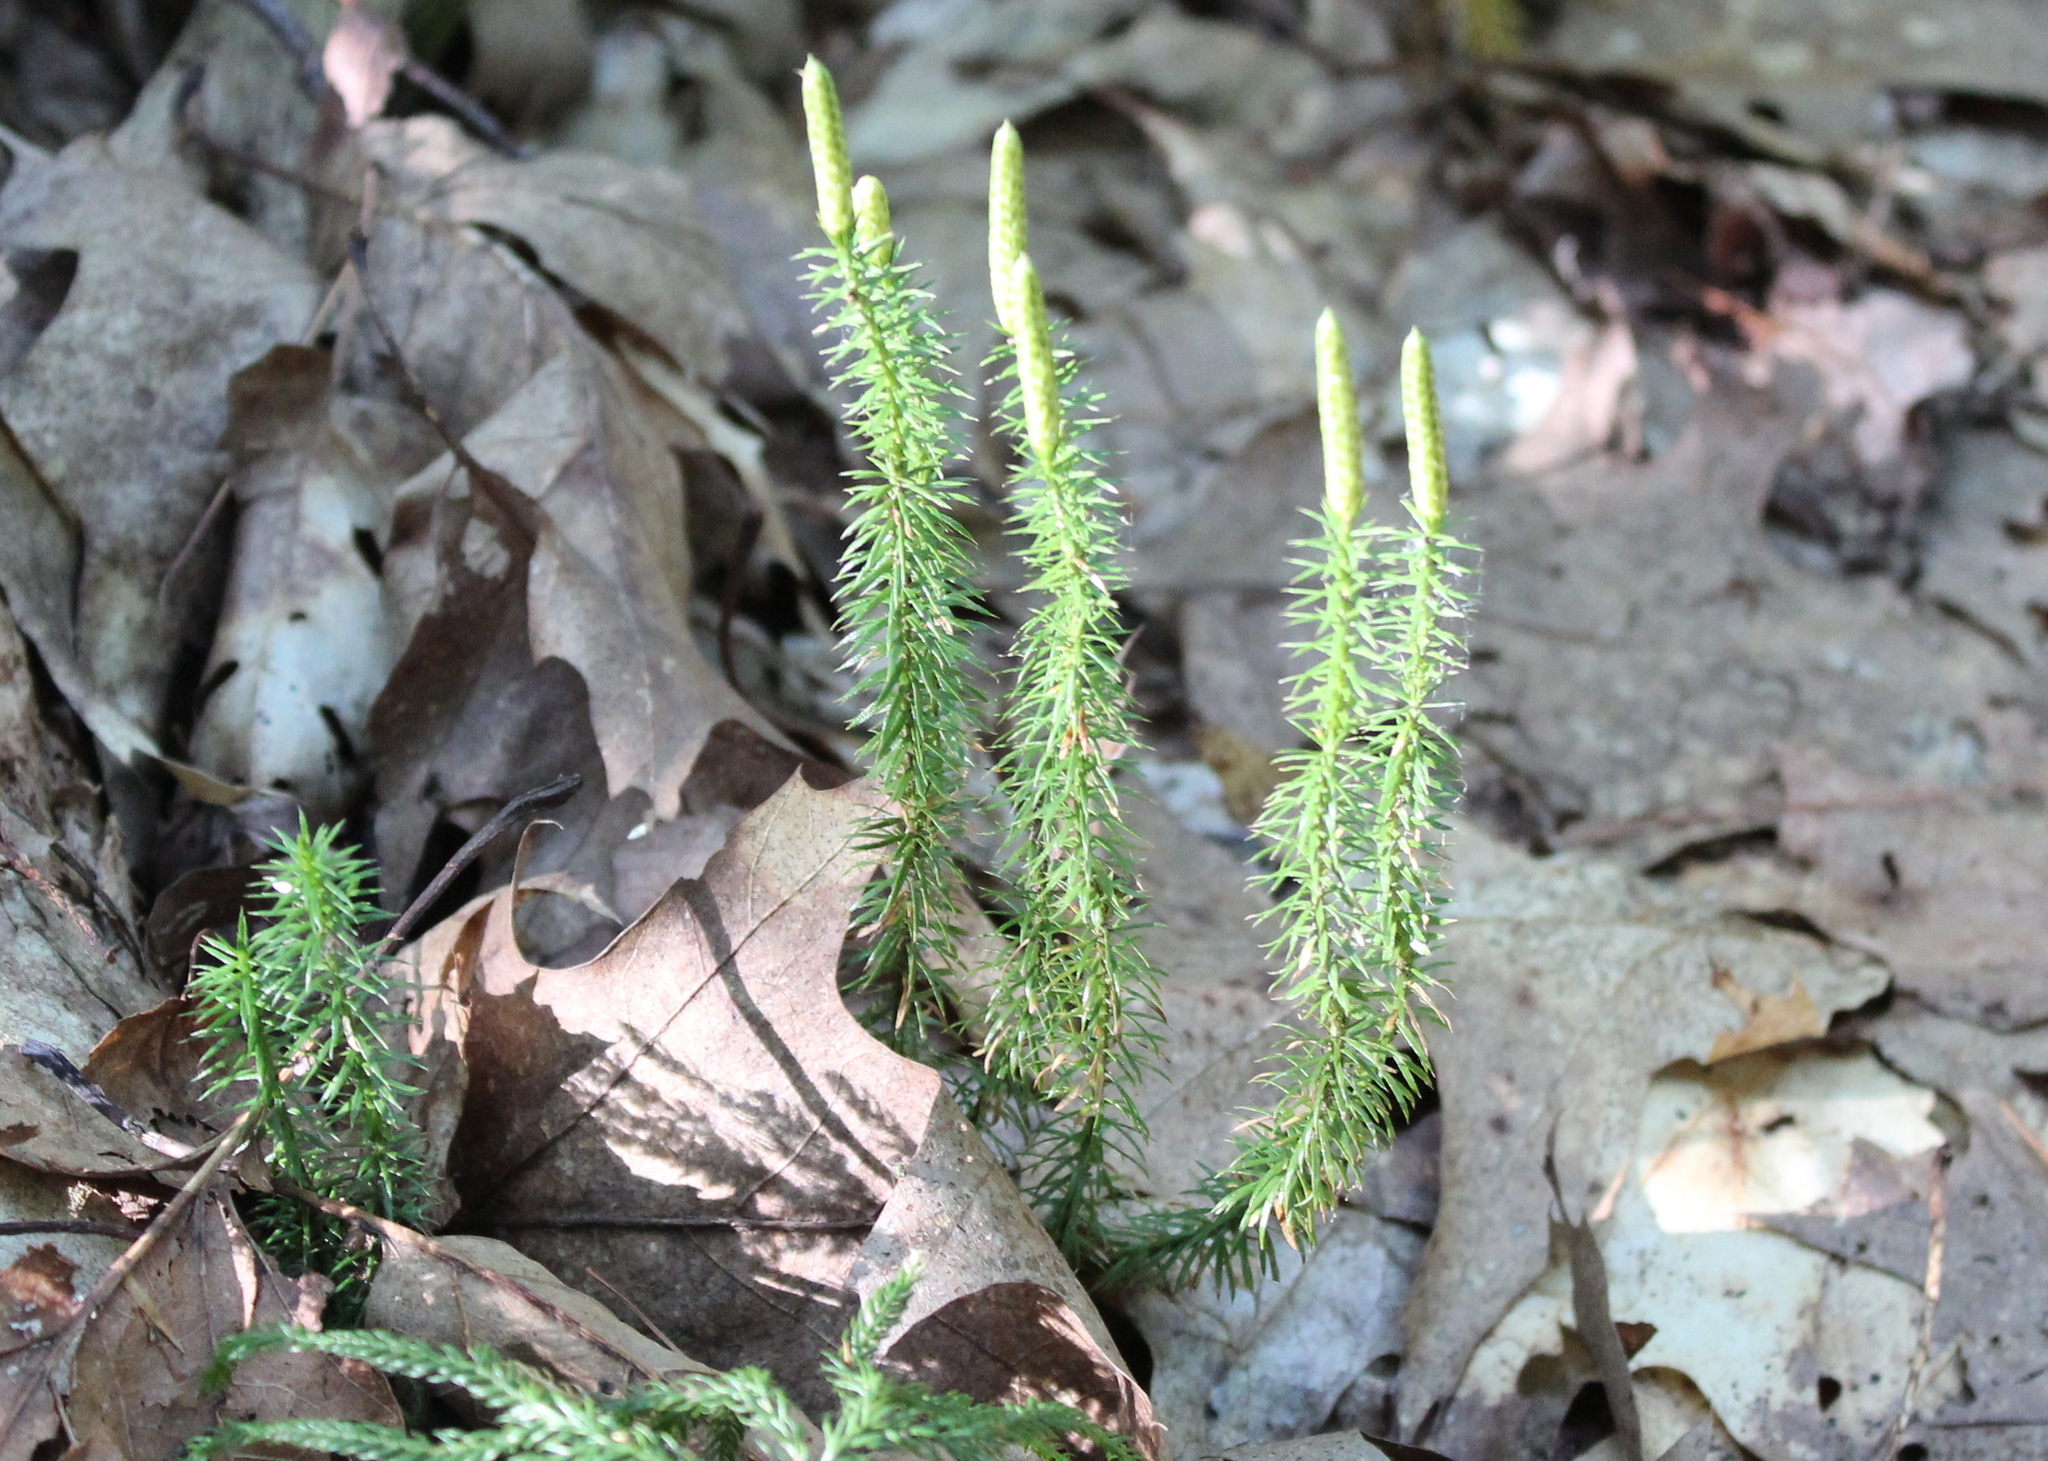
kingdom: Plantae
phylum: Tracheophyta
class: Lycopodiopsida
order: Lycopodiales
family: Lycopodiaceae
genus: Spinulum
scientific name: Spinulum annotinum
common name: Interrupted club-moss
